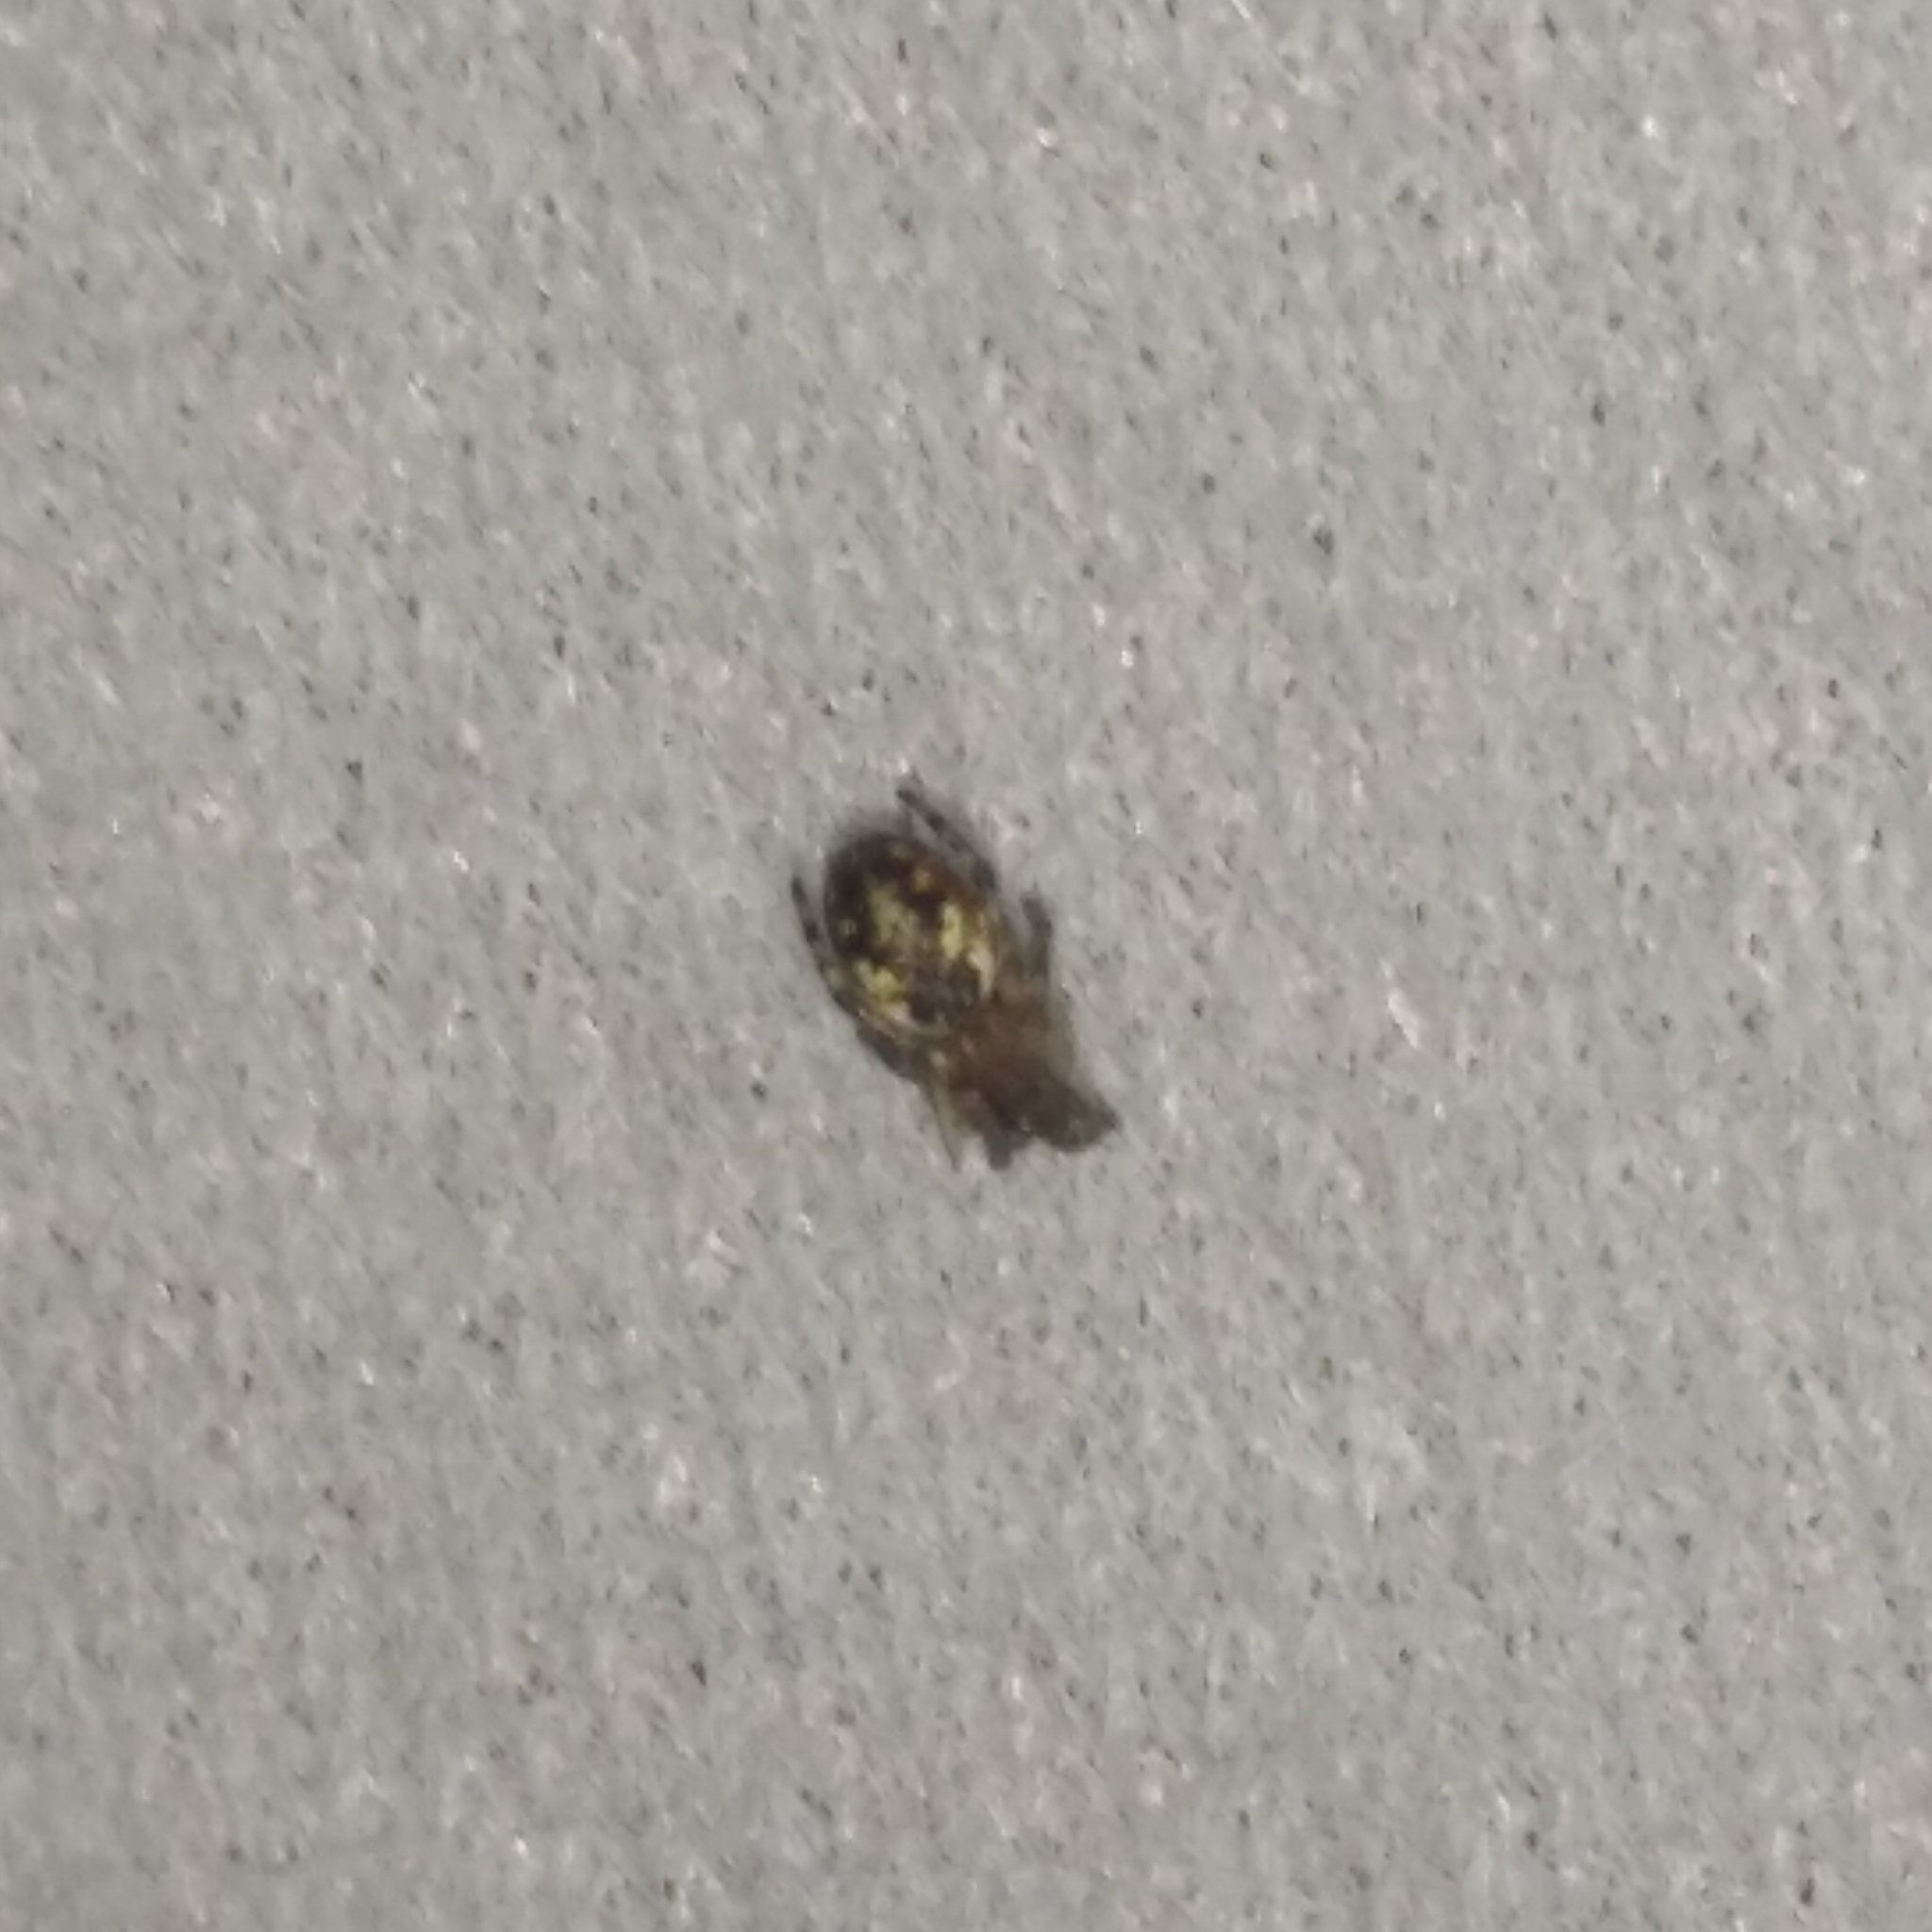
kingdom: Animalia
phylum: Arthropoda
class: Arachnida
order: Araneae
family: Araneidae
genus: Cyclosa
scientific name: Cyclosa conica
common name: Conical trashline orbweaver
